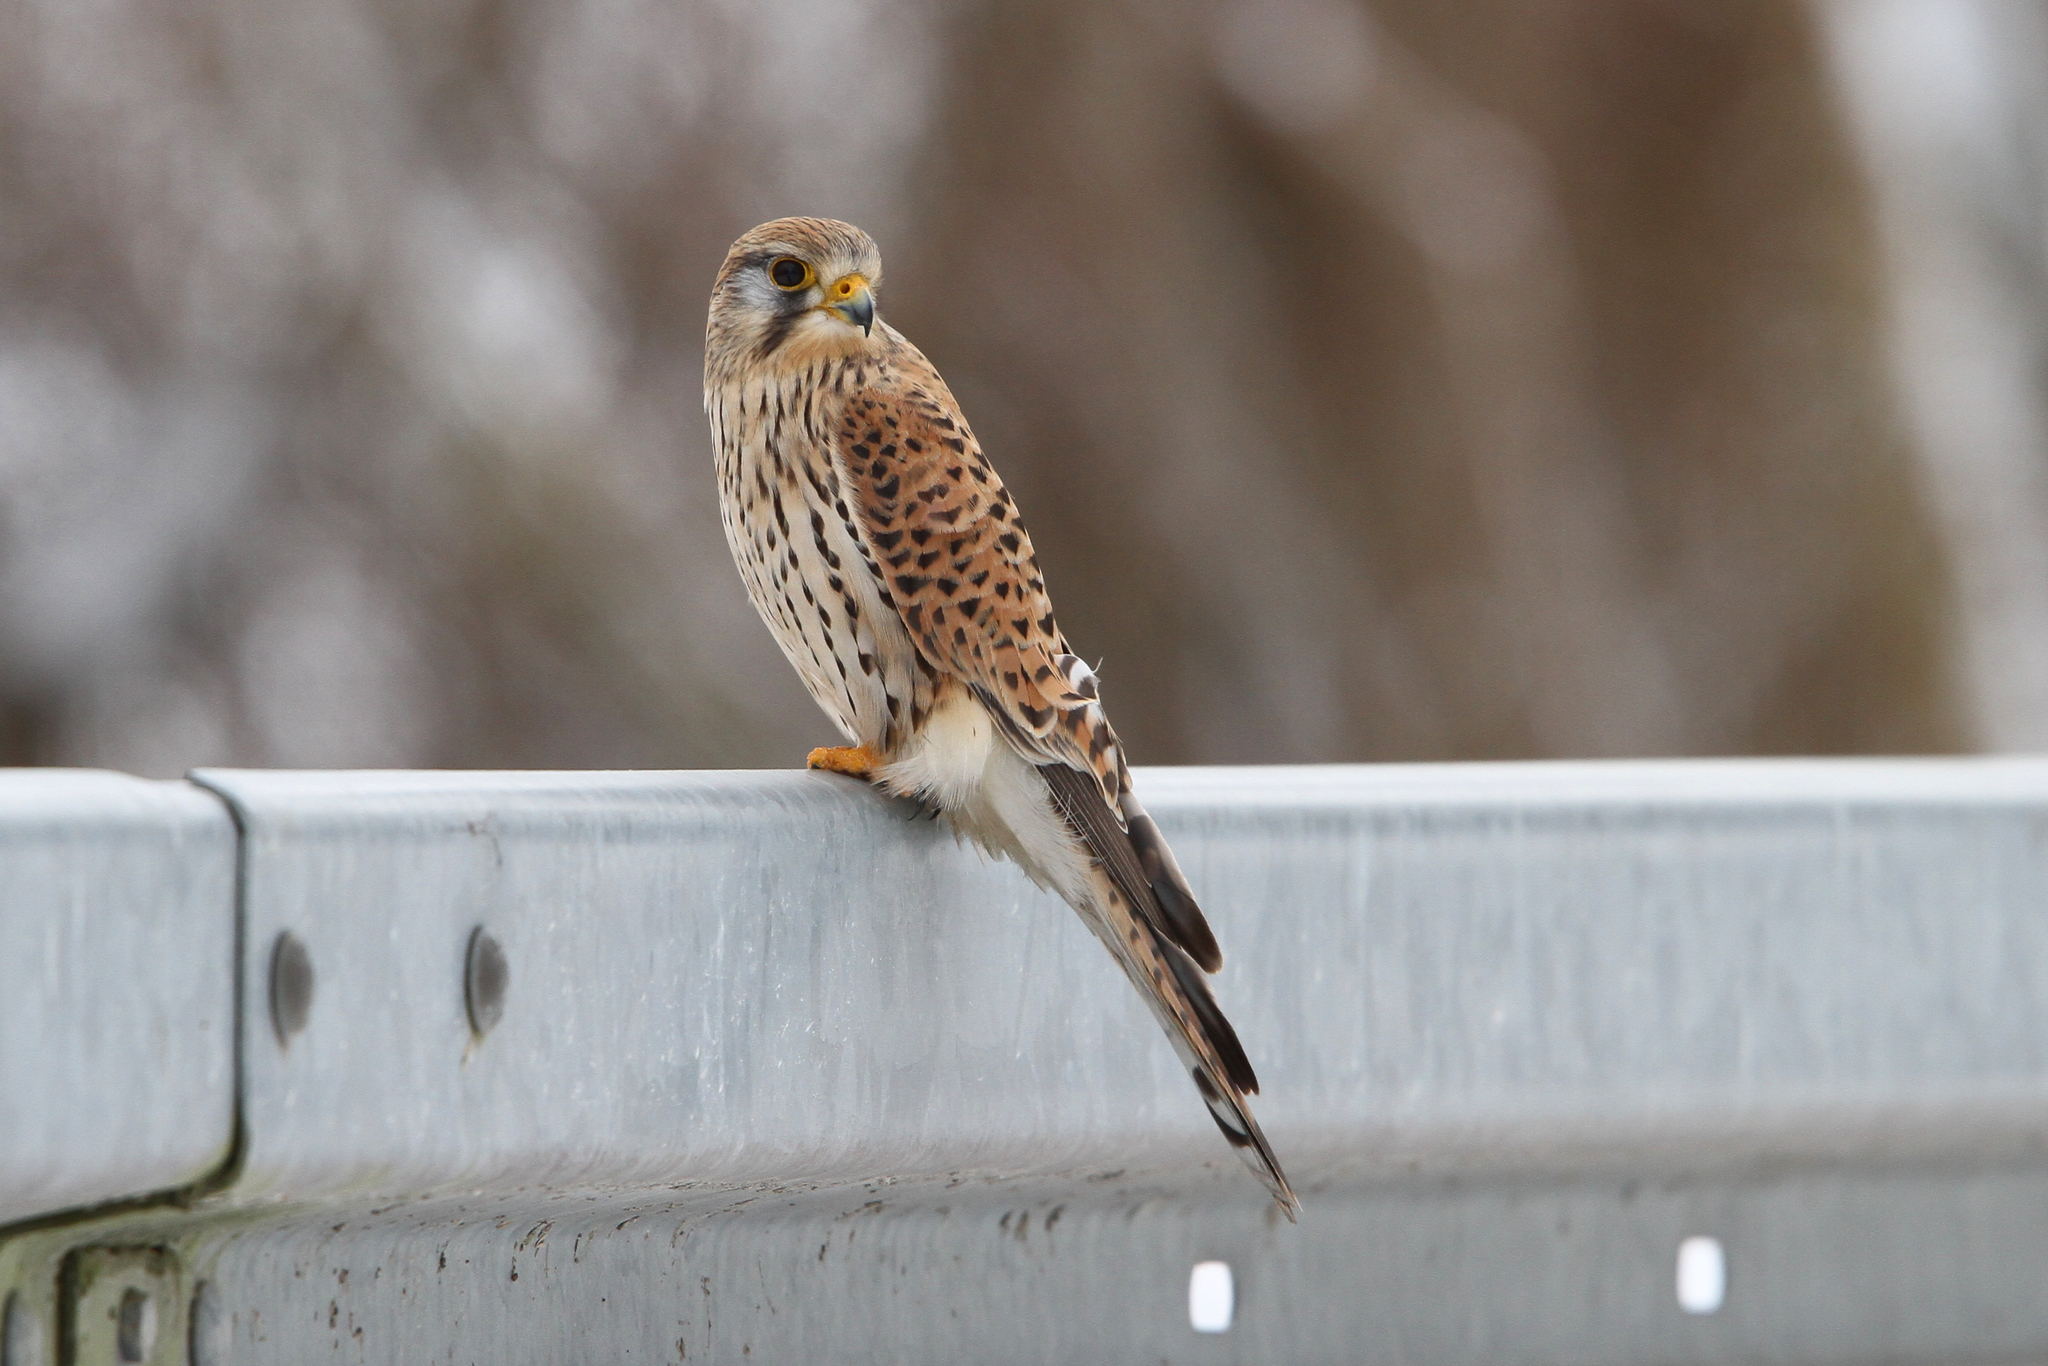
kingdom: Animalia
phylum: Chordata
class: Aves
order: Falconiformes
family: Falconidae
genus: Falco
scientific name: Falco tinnunculus
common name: Common kestrel
